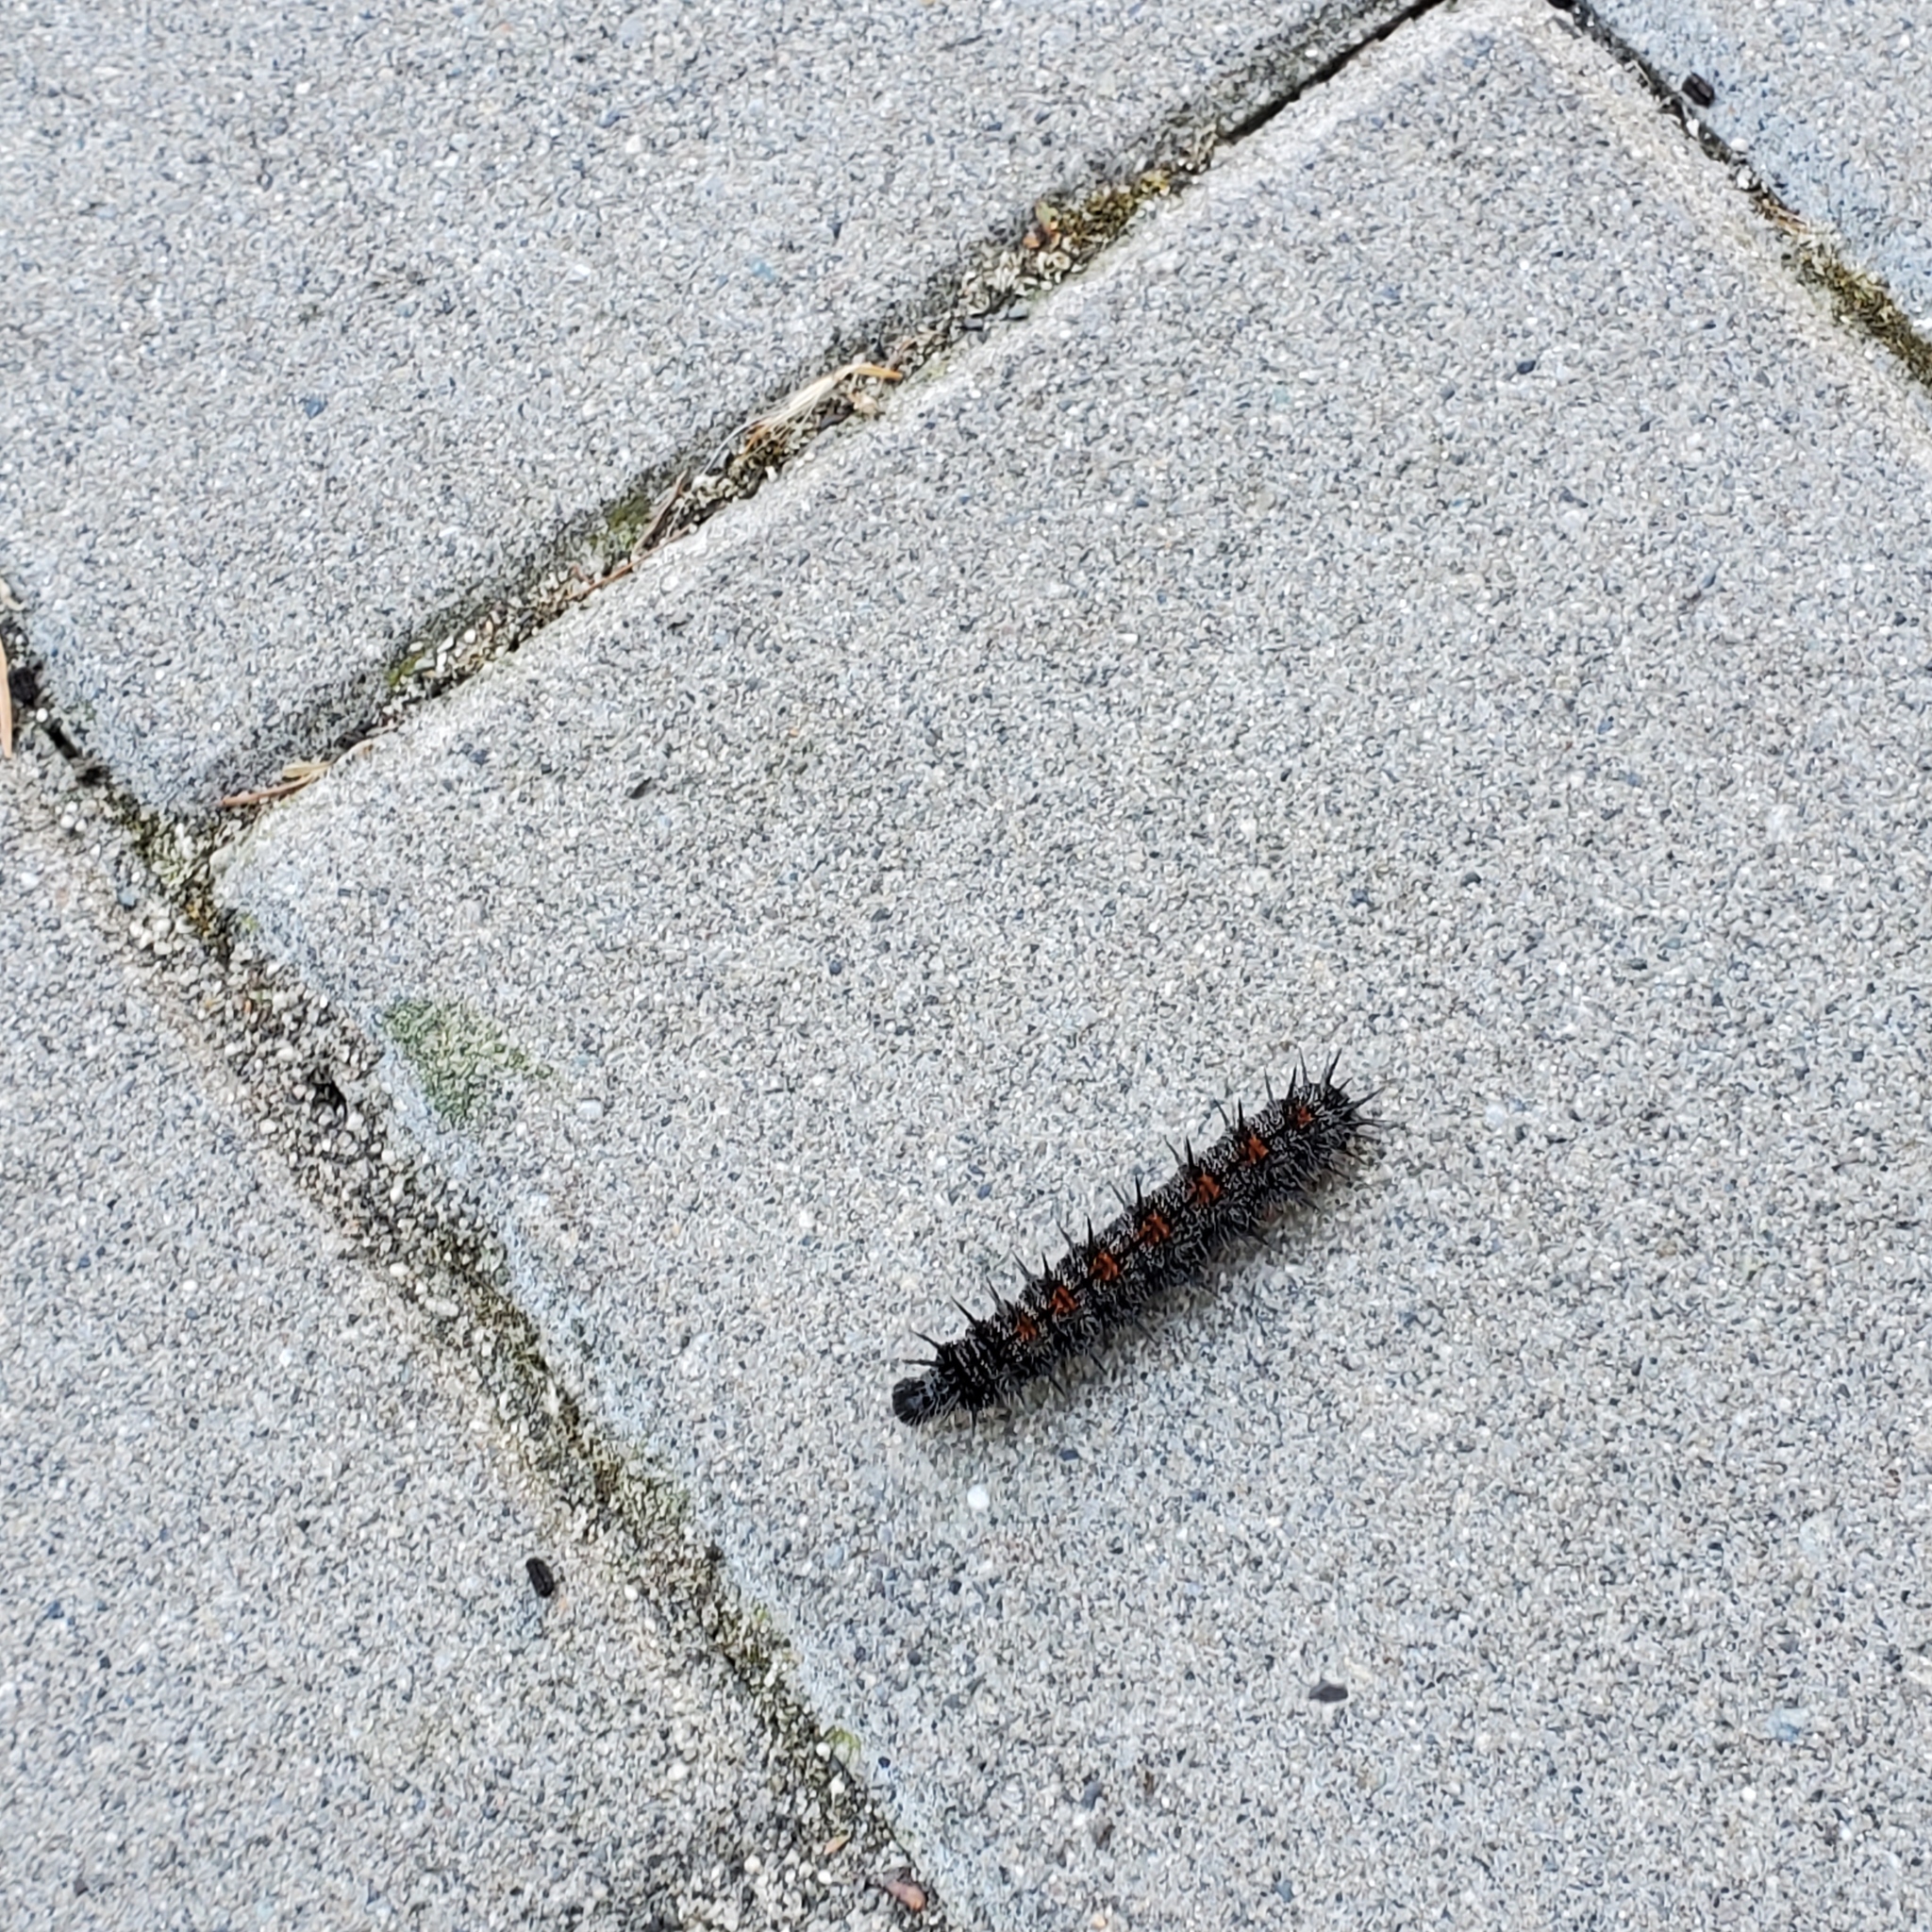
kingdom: Animalia
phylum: Arthropoda
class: Insecta
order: Lepidoptera
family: Nymphalidae
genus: Nymphalis
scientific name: Nymphalis antiopa
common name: Camberwell beauty
